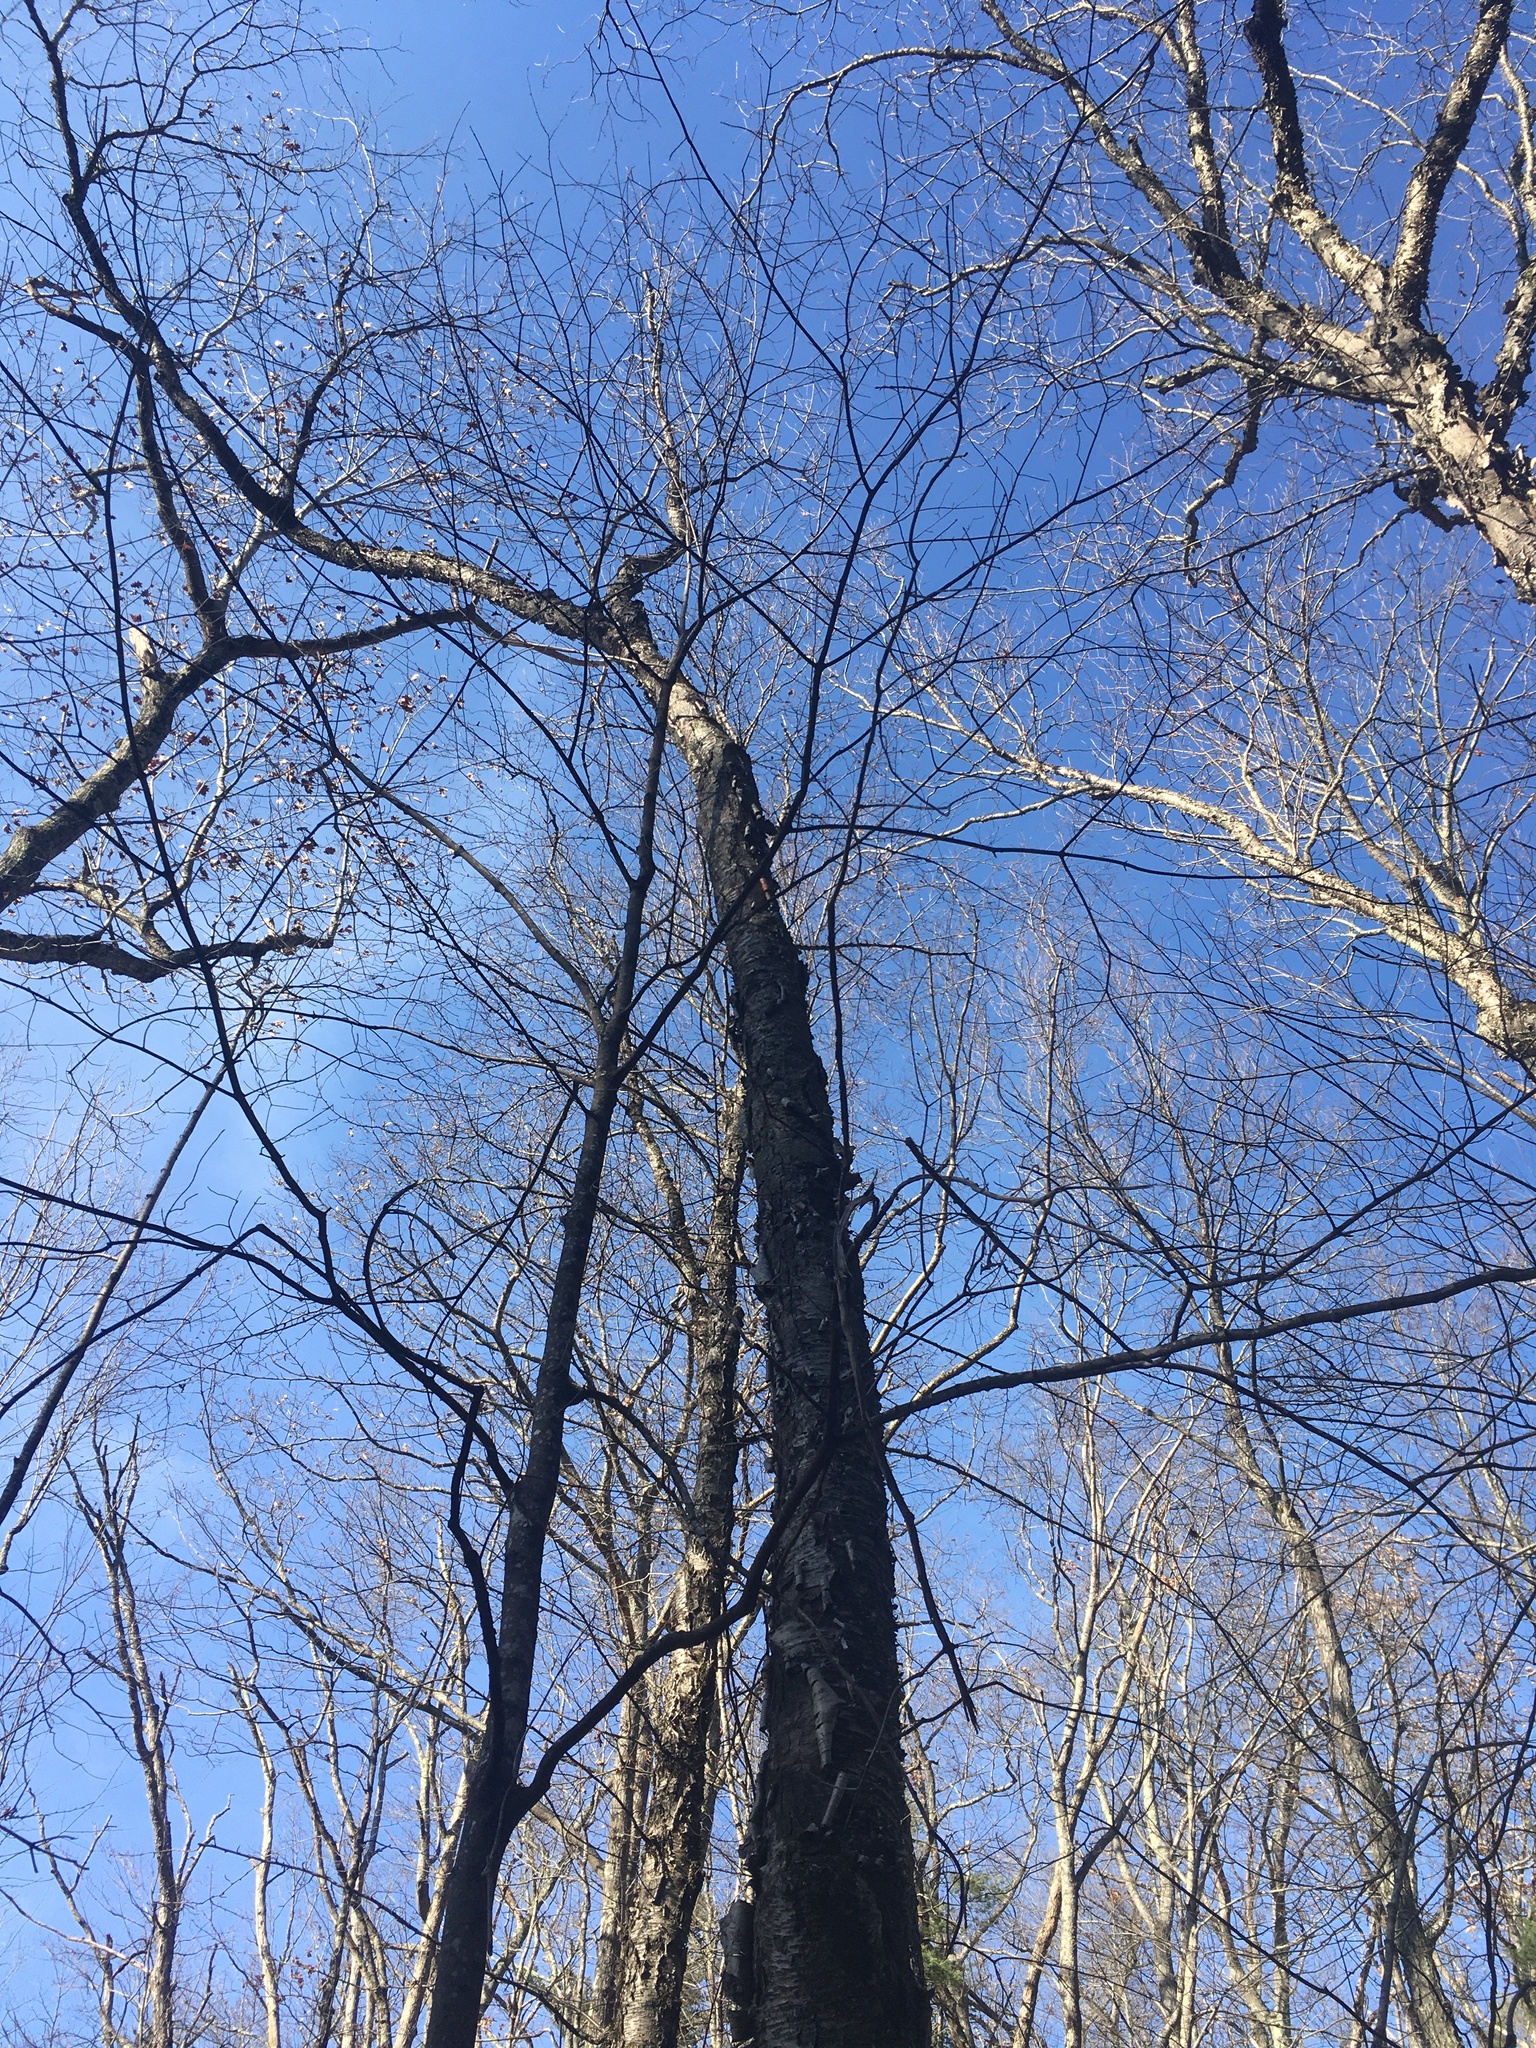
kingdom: Plantae
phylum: Tracheophyta
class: Magnoliopsida
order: Fagales
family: Betulaceae
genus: Betula
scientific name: Betula alleghaniensis
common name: Yellow birch
